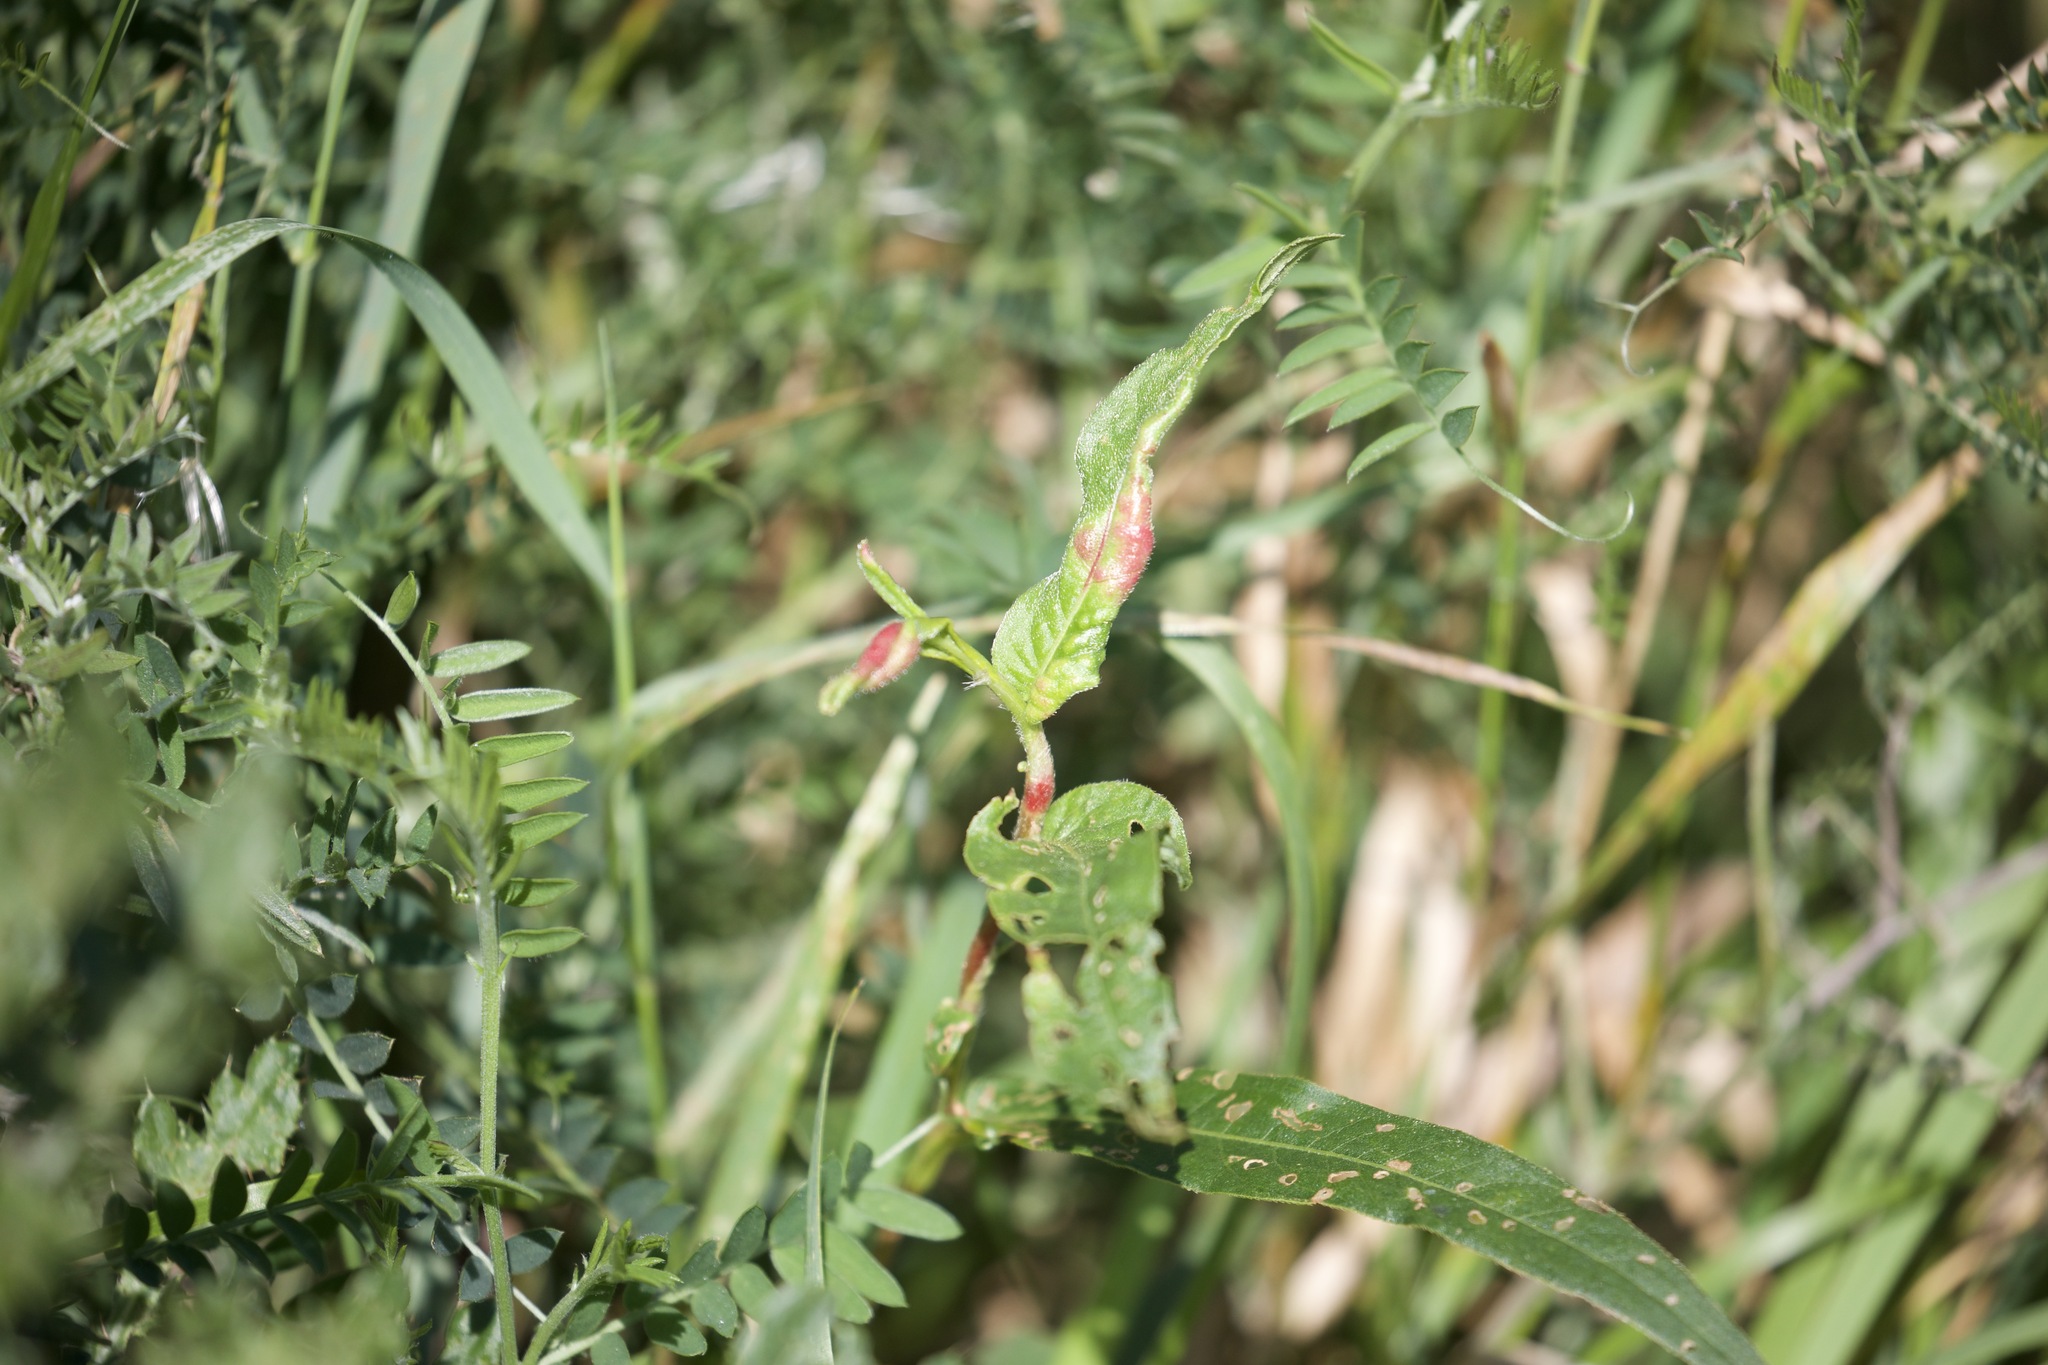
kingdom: Animalia
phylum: Arthropoda
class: Insecta
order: Diptera
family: Cecidomyiidae
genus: Wachtliella
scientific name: Wachtliella persicariae
